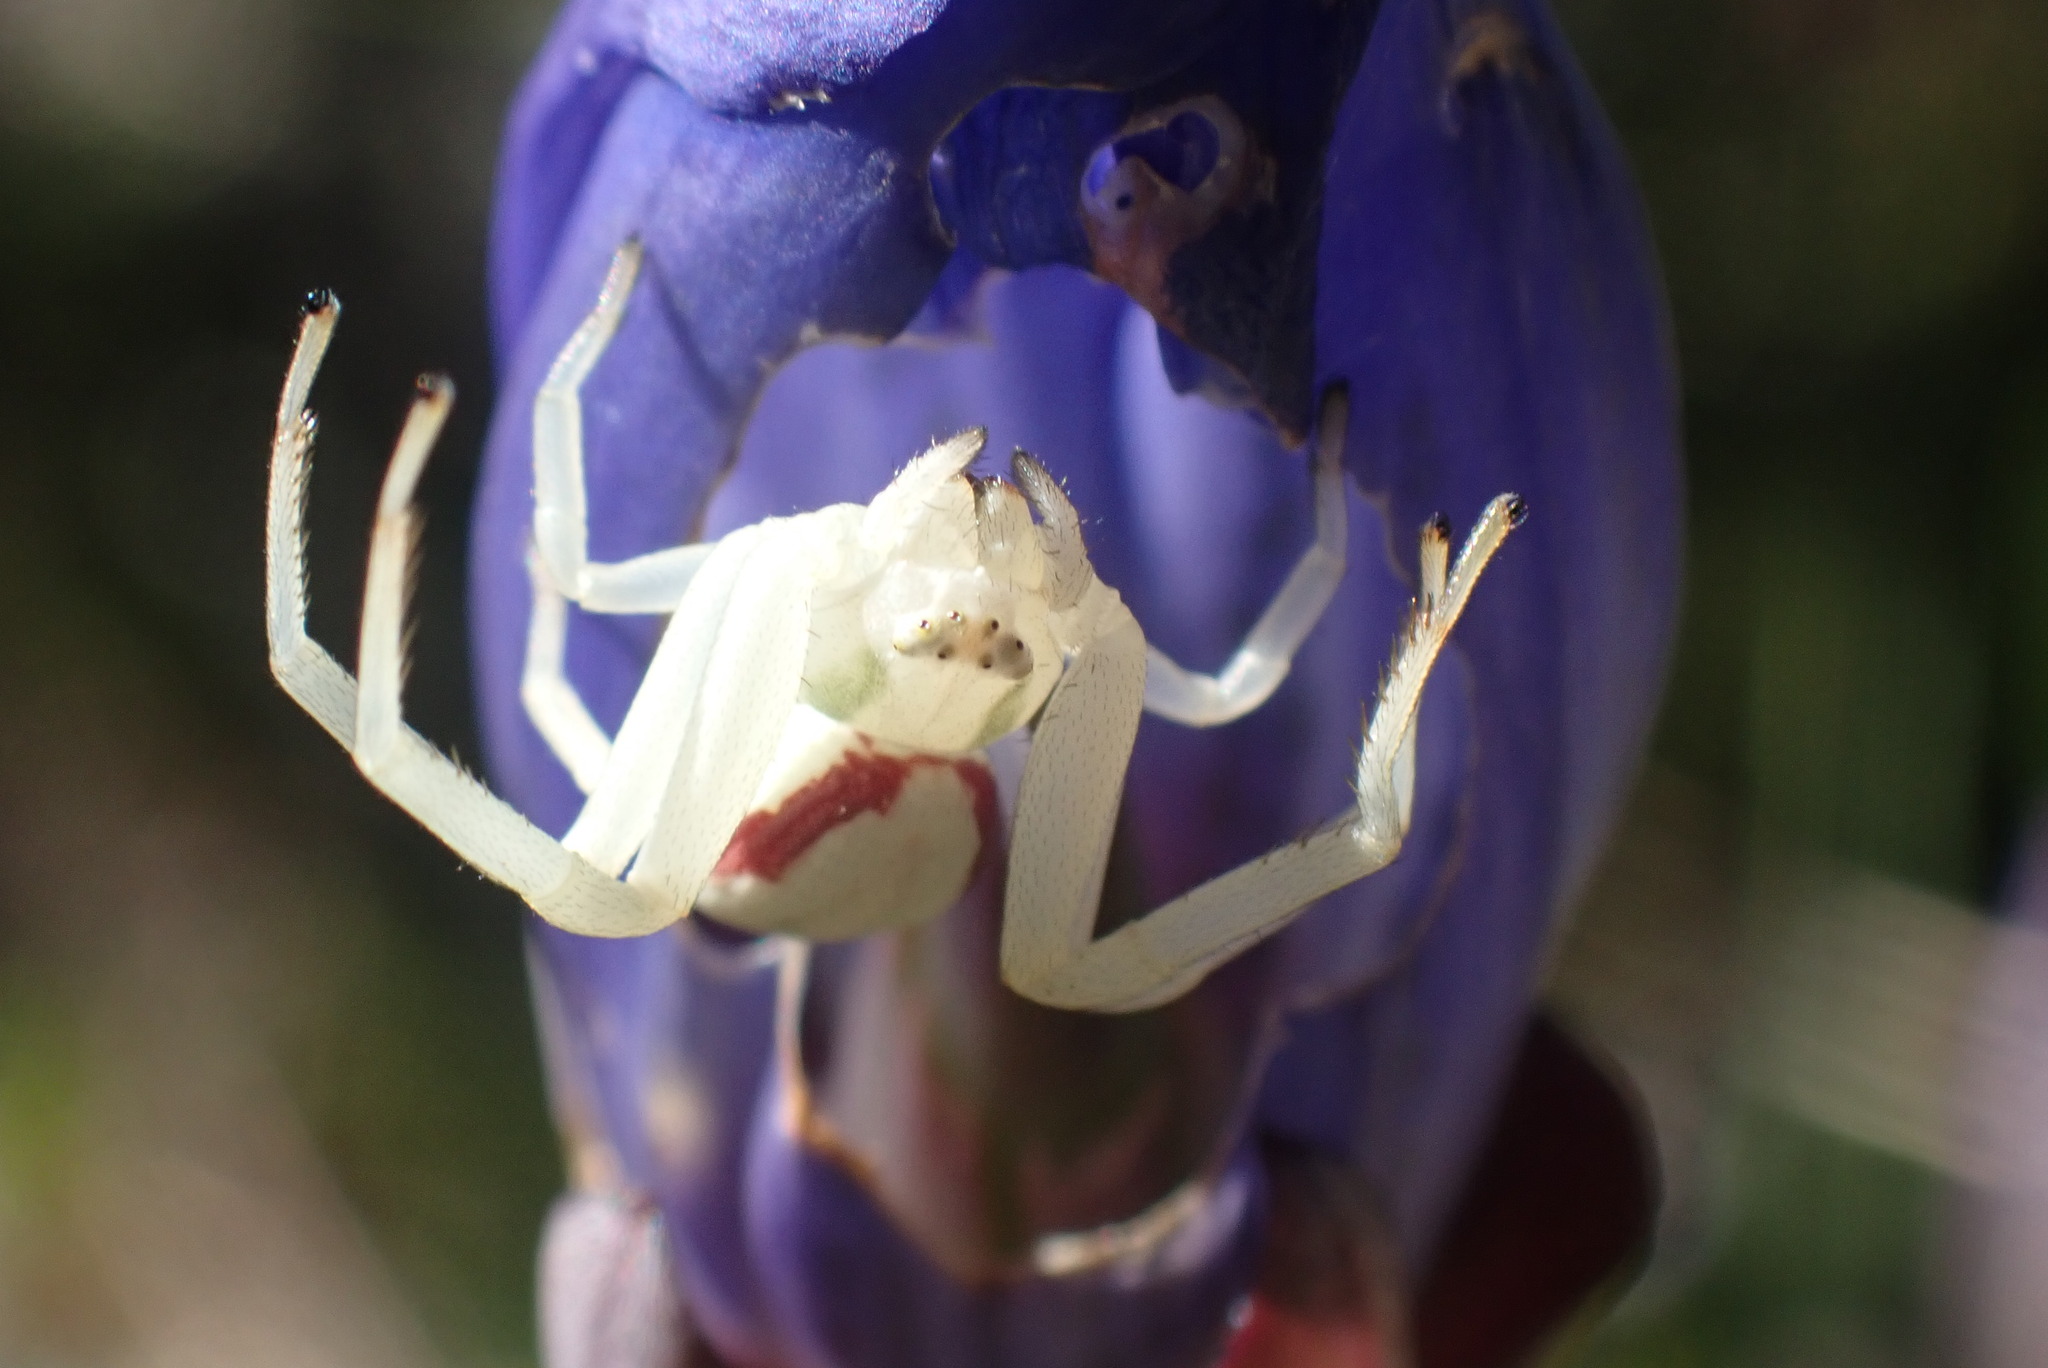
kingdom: Animalia
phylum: Arthropoda
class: Arachnida
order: Araneae
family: Thomisidae
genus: Misumena
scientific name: Misumena vatia
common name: Goldenrod crab spider
